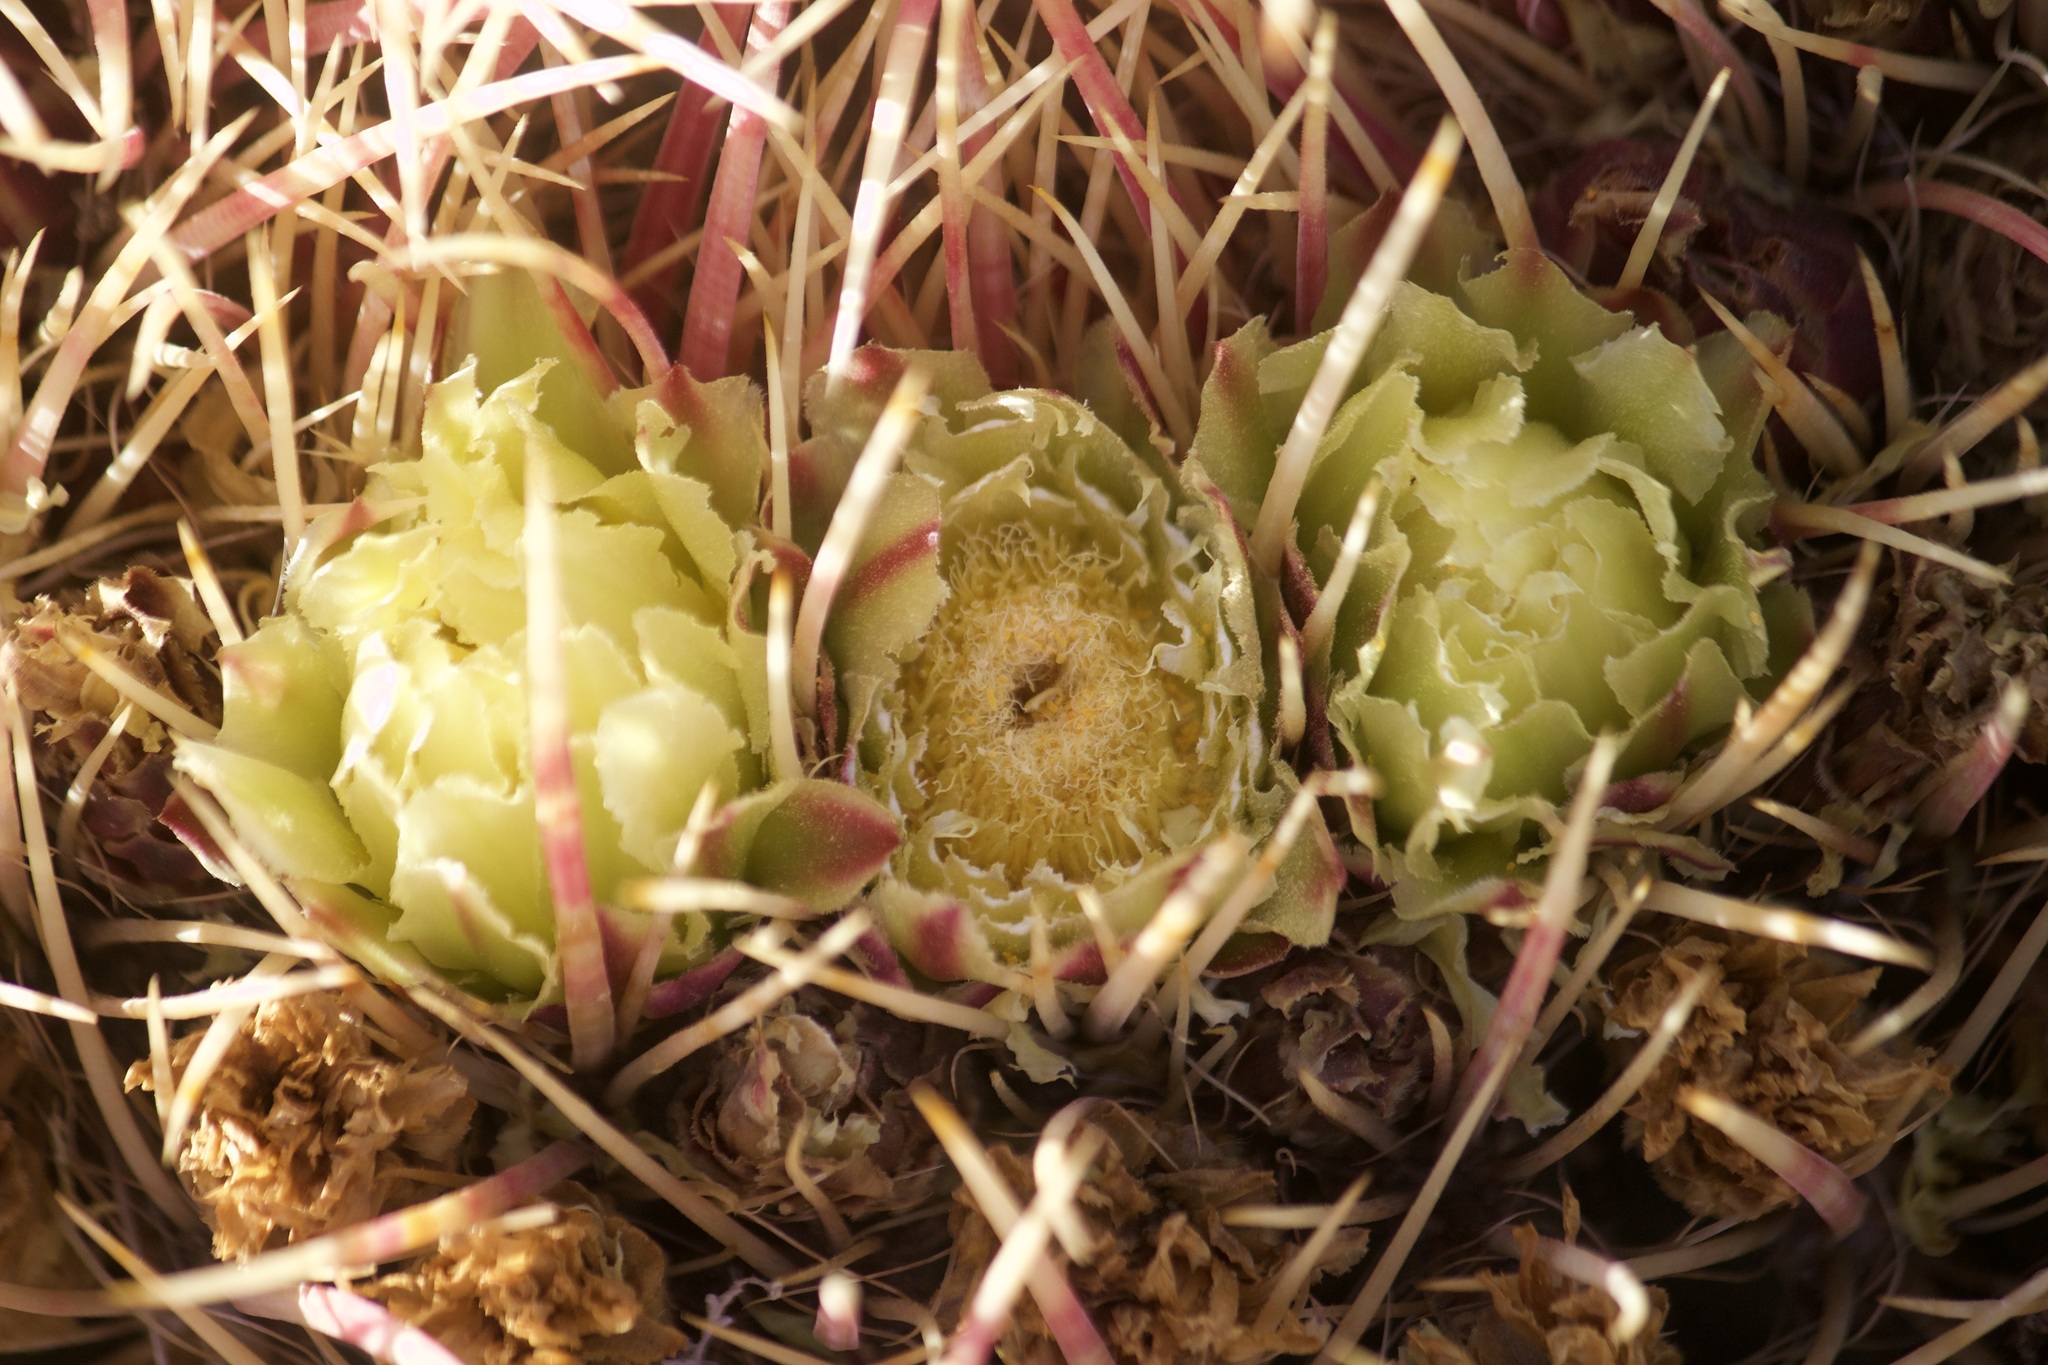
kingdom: Plantae
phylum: Tracheophyta
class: Magnoliopsida
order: Caryophyllales
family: Cactaceae
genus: Ferocactus
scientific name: Ferocactus cylindraceus
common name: California barrel cactus
